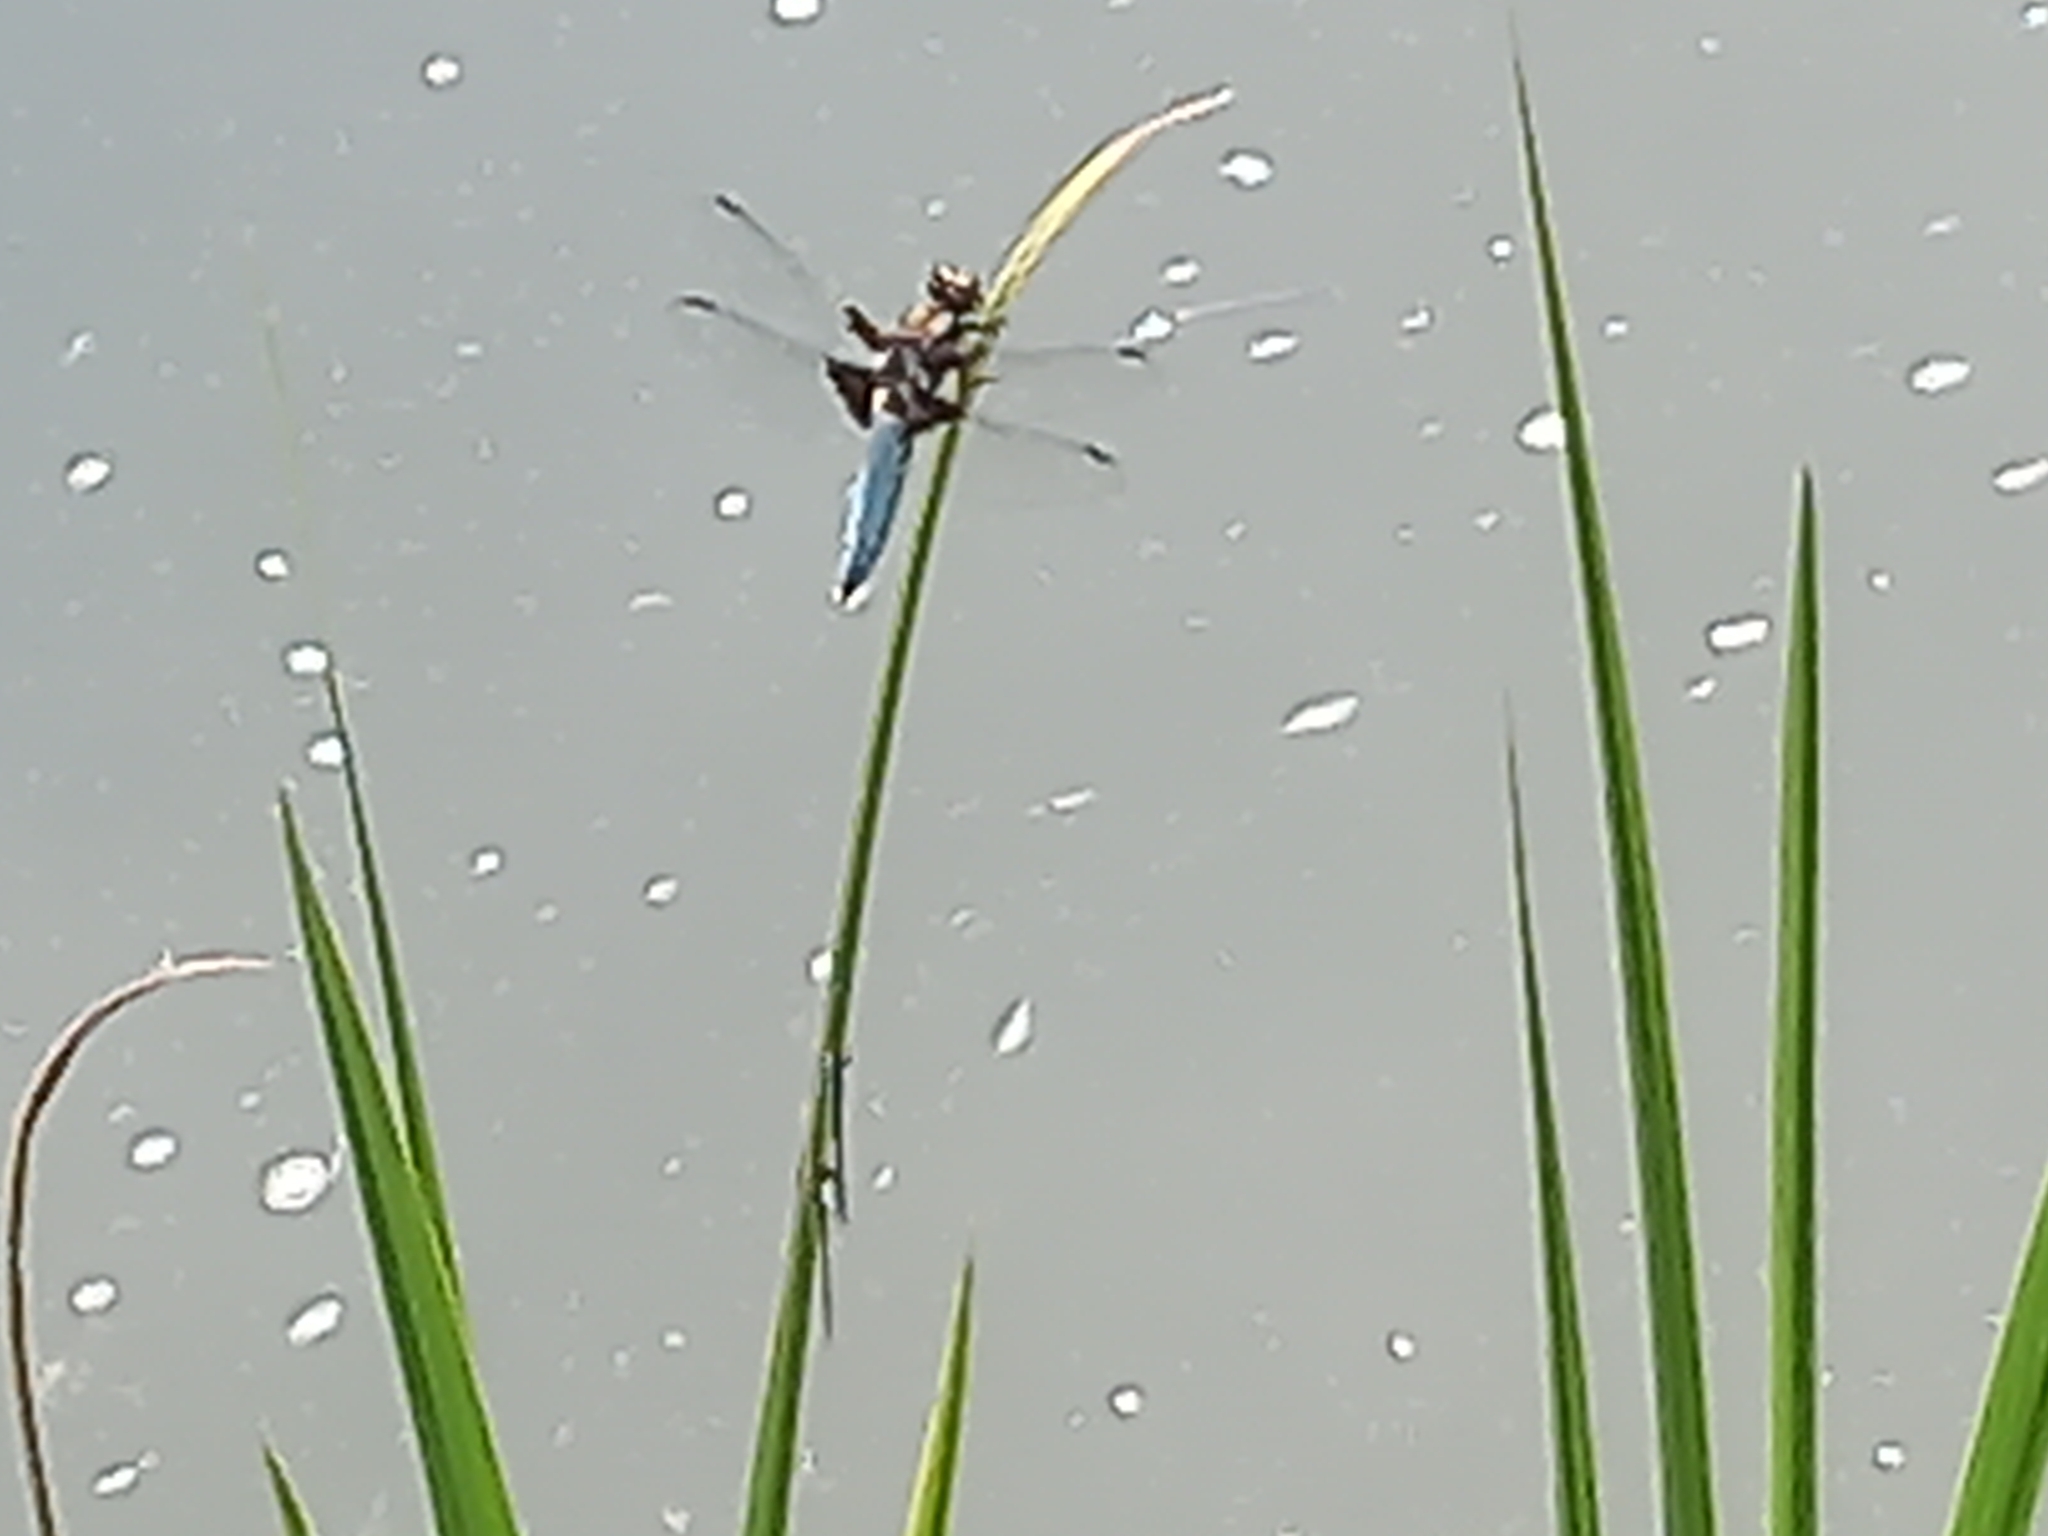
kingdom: Animalia
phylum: Arthropoda
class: Insecta
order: Odonata
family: Libellulidae
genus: Libellula
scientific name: Libellula depressa
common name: Broad-bodied chaser
